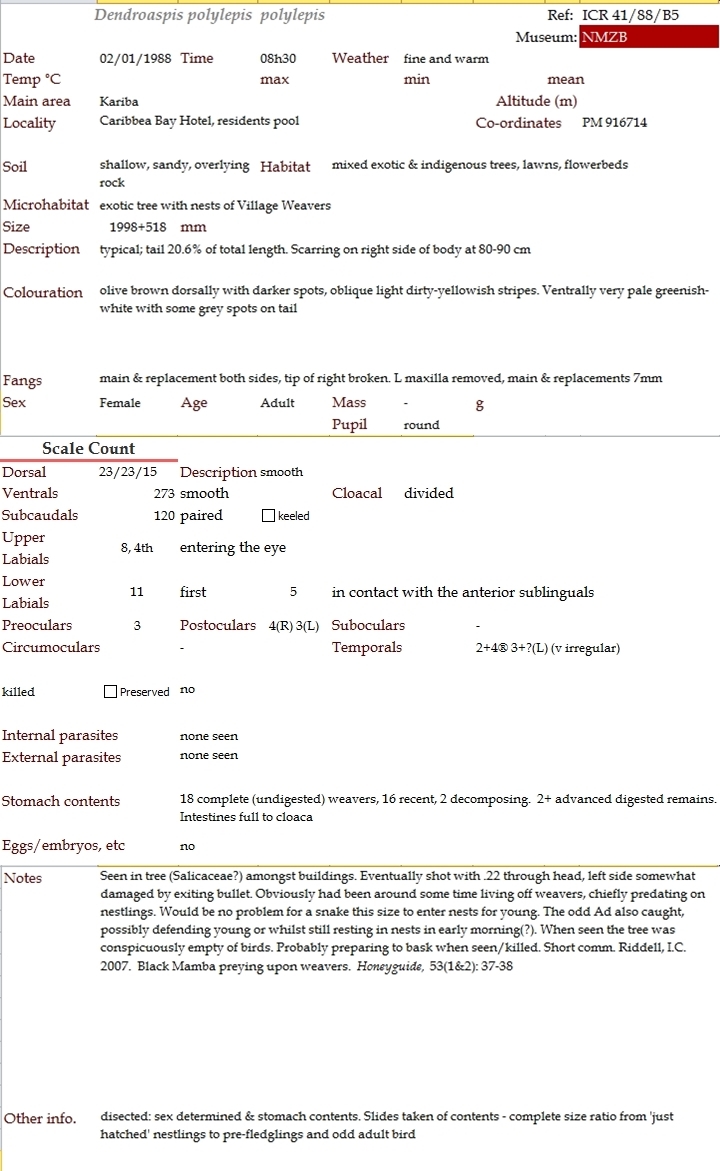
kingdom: Animalia
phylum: Chordata
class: Aves
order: Passeriformes
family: Ploceidae
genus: Ploceus
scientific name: Ploceus cucullatus
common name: Village weaver
